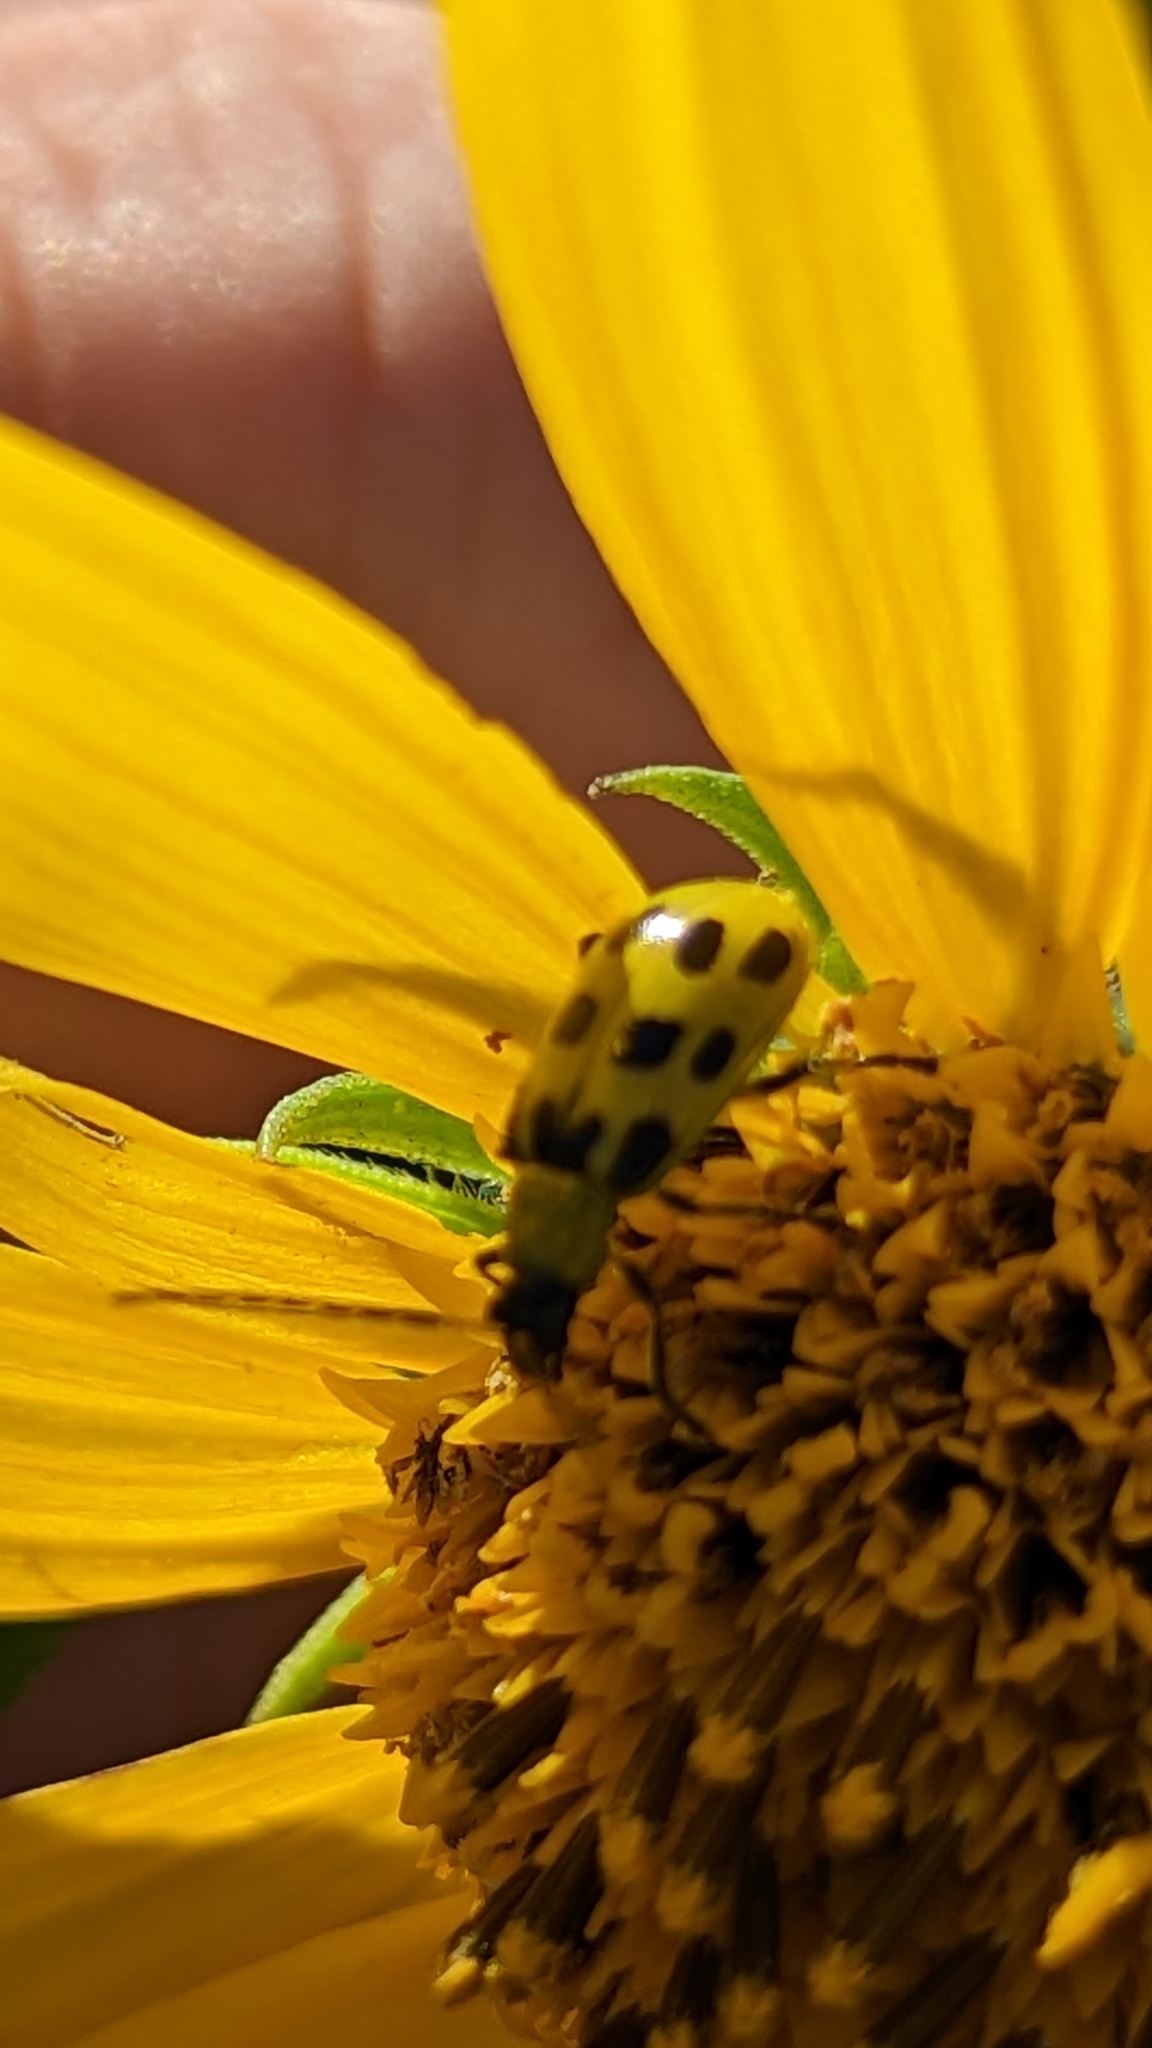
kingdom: Animalia
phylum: Arthropoda
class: Insecta
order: Coleoptera
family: Chrysomelidae
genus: Diabrotica
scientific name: Diabrotica undecimpunctata
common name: Spotted cucumber beetle
